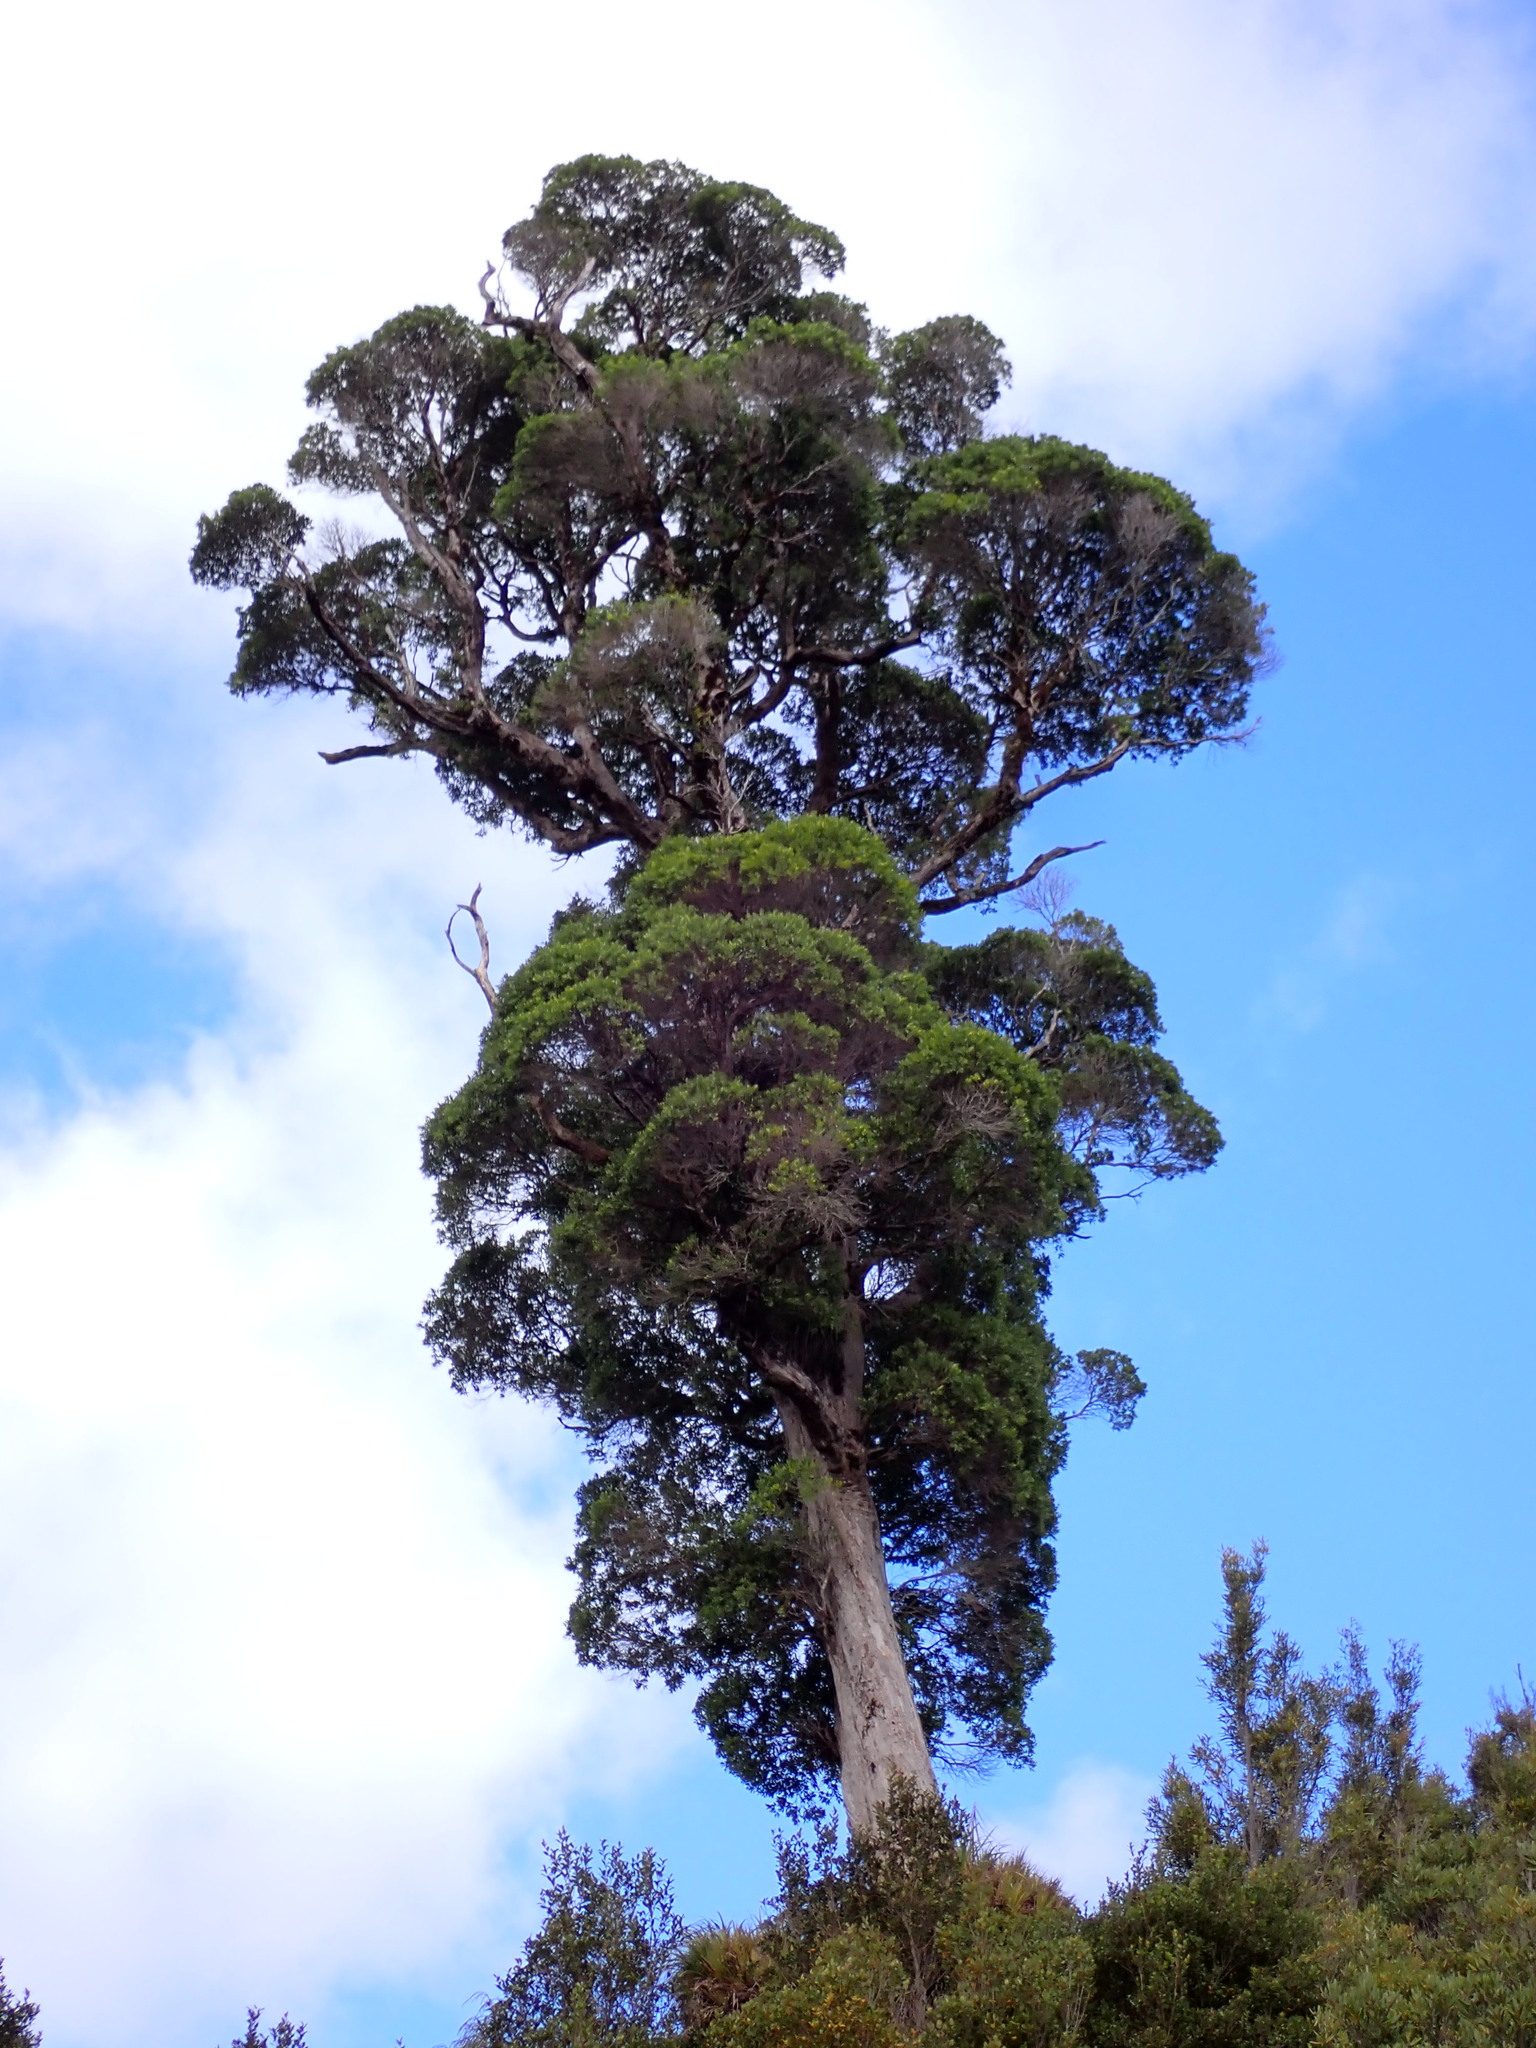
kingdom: Plantae
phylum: Tracheophyta
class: Magnoliopsida
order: Myrtales
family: Myrtaceae
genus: Metrosideros
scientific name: Metrosideros robusta
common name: Northern rata
